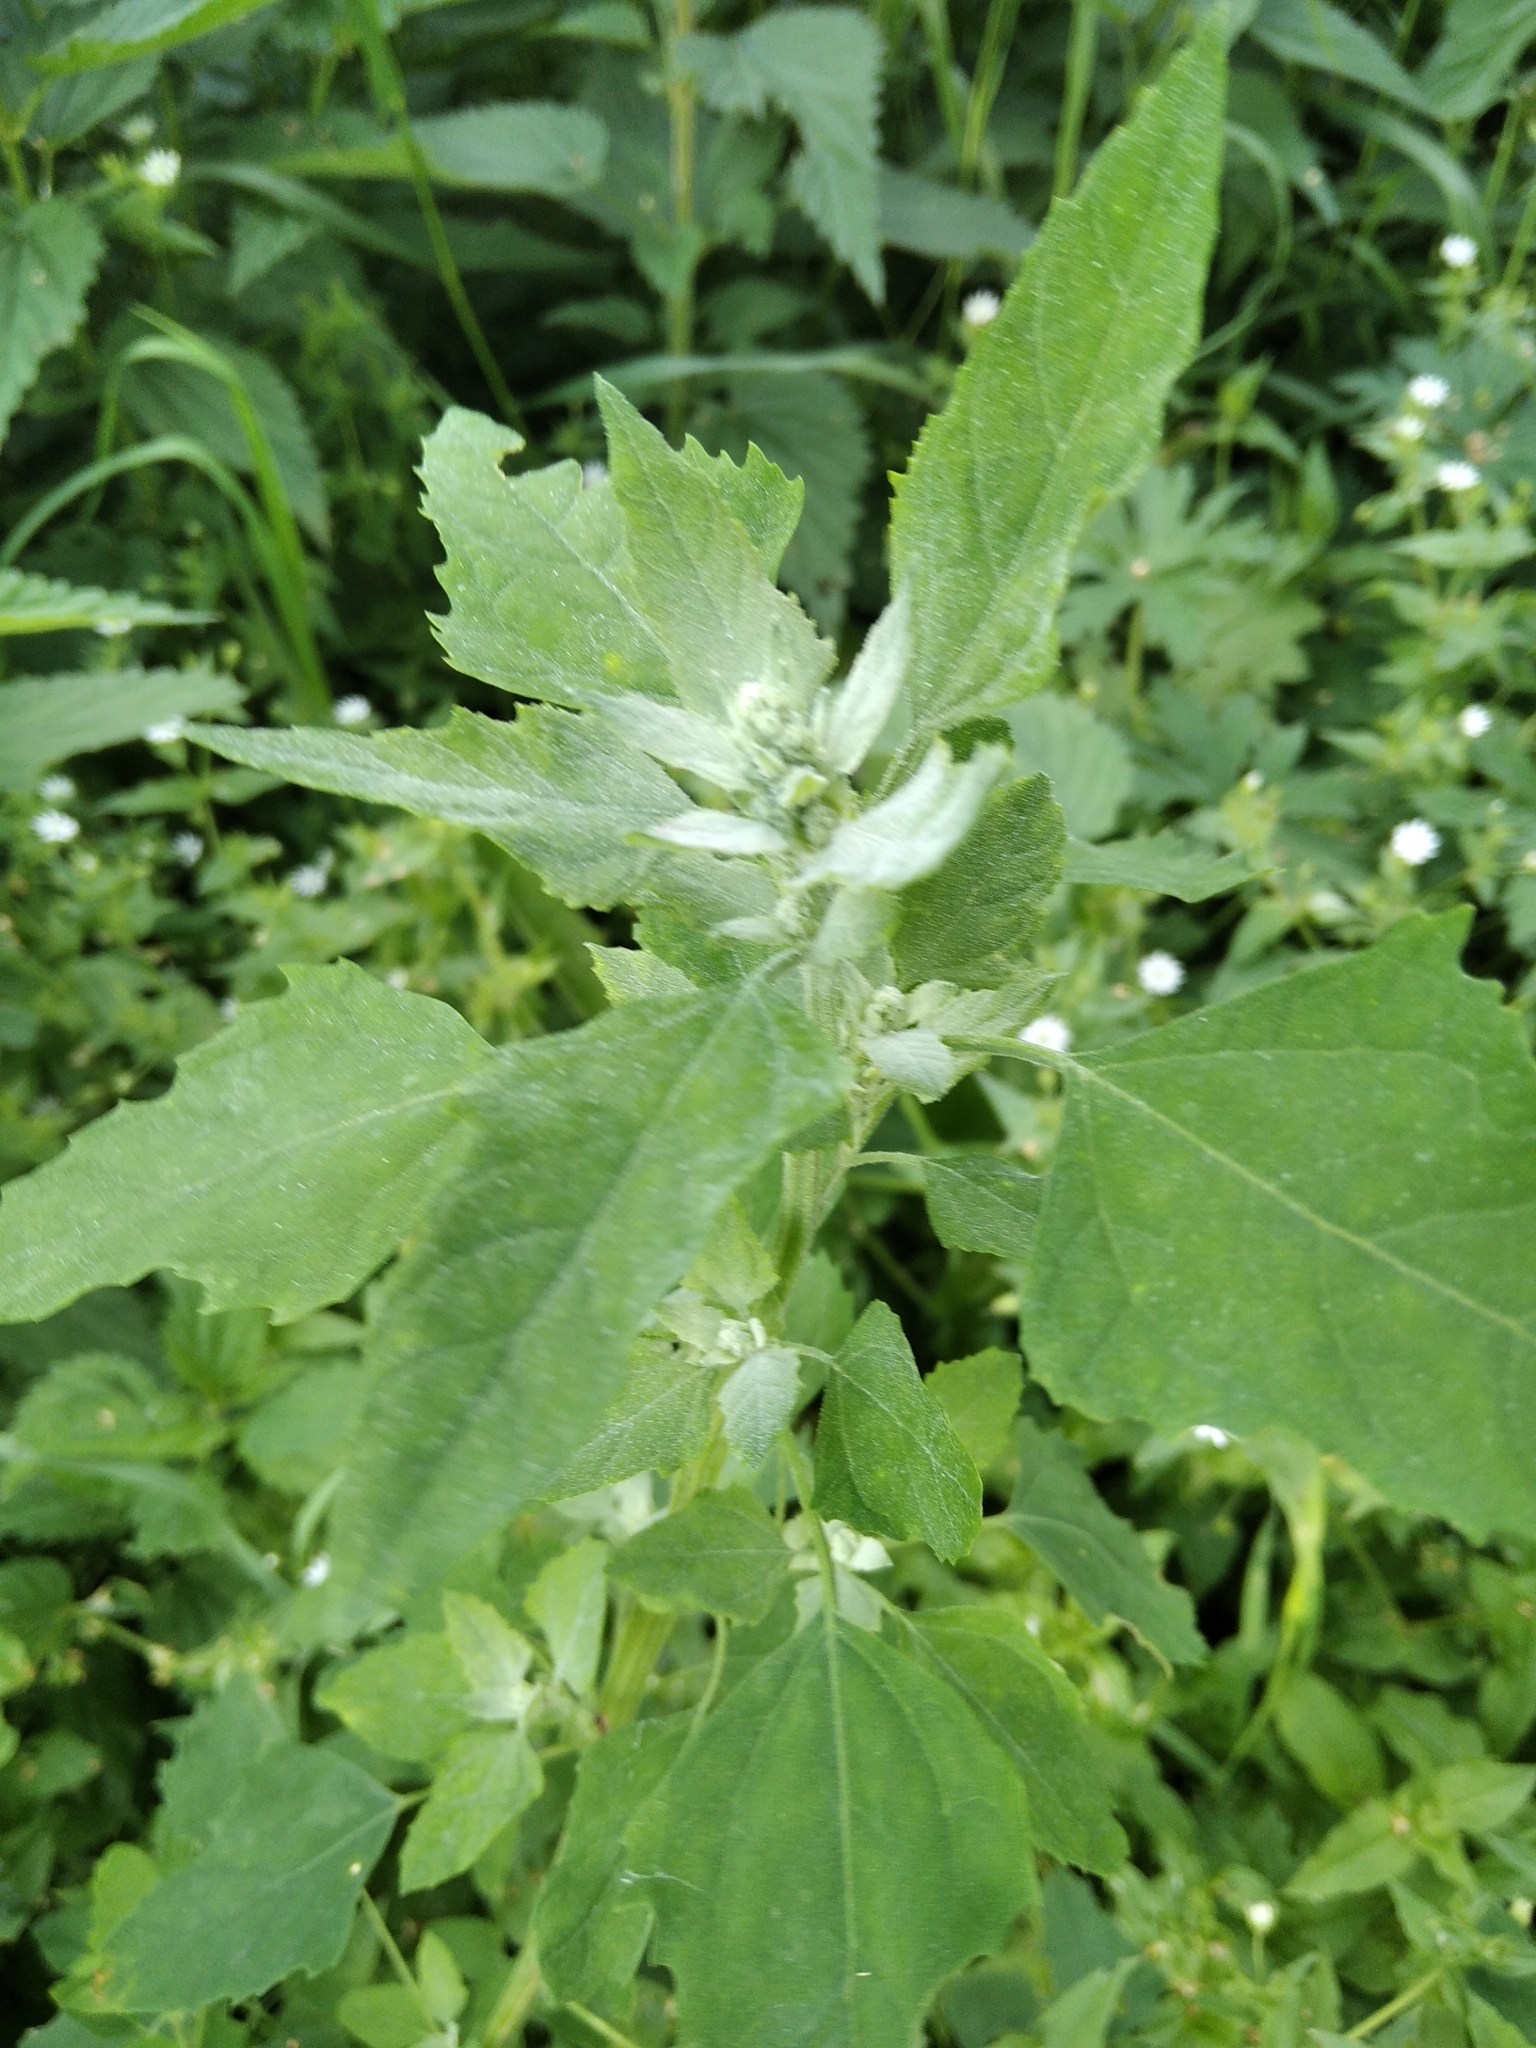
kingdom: Plantae
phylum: Tracheophyta
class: Magnoliopsida
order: Caryophyllales
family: Amaranthaceae
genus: Chenopodium
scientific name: Chenopodium album
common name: Fat-hen
